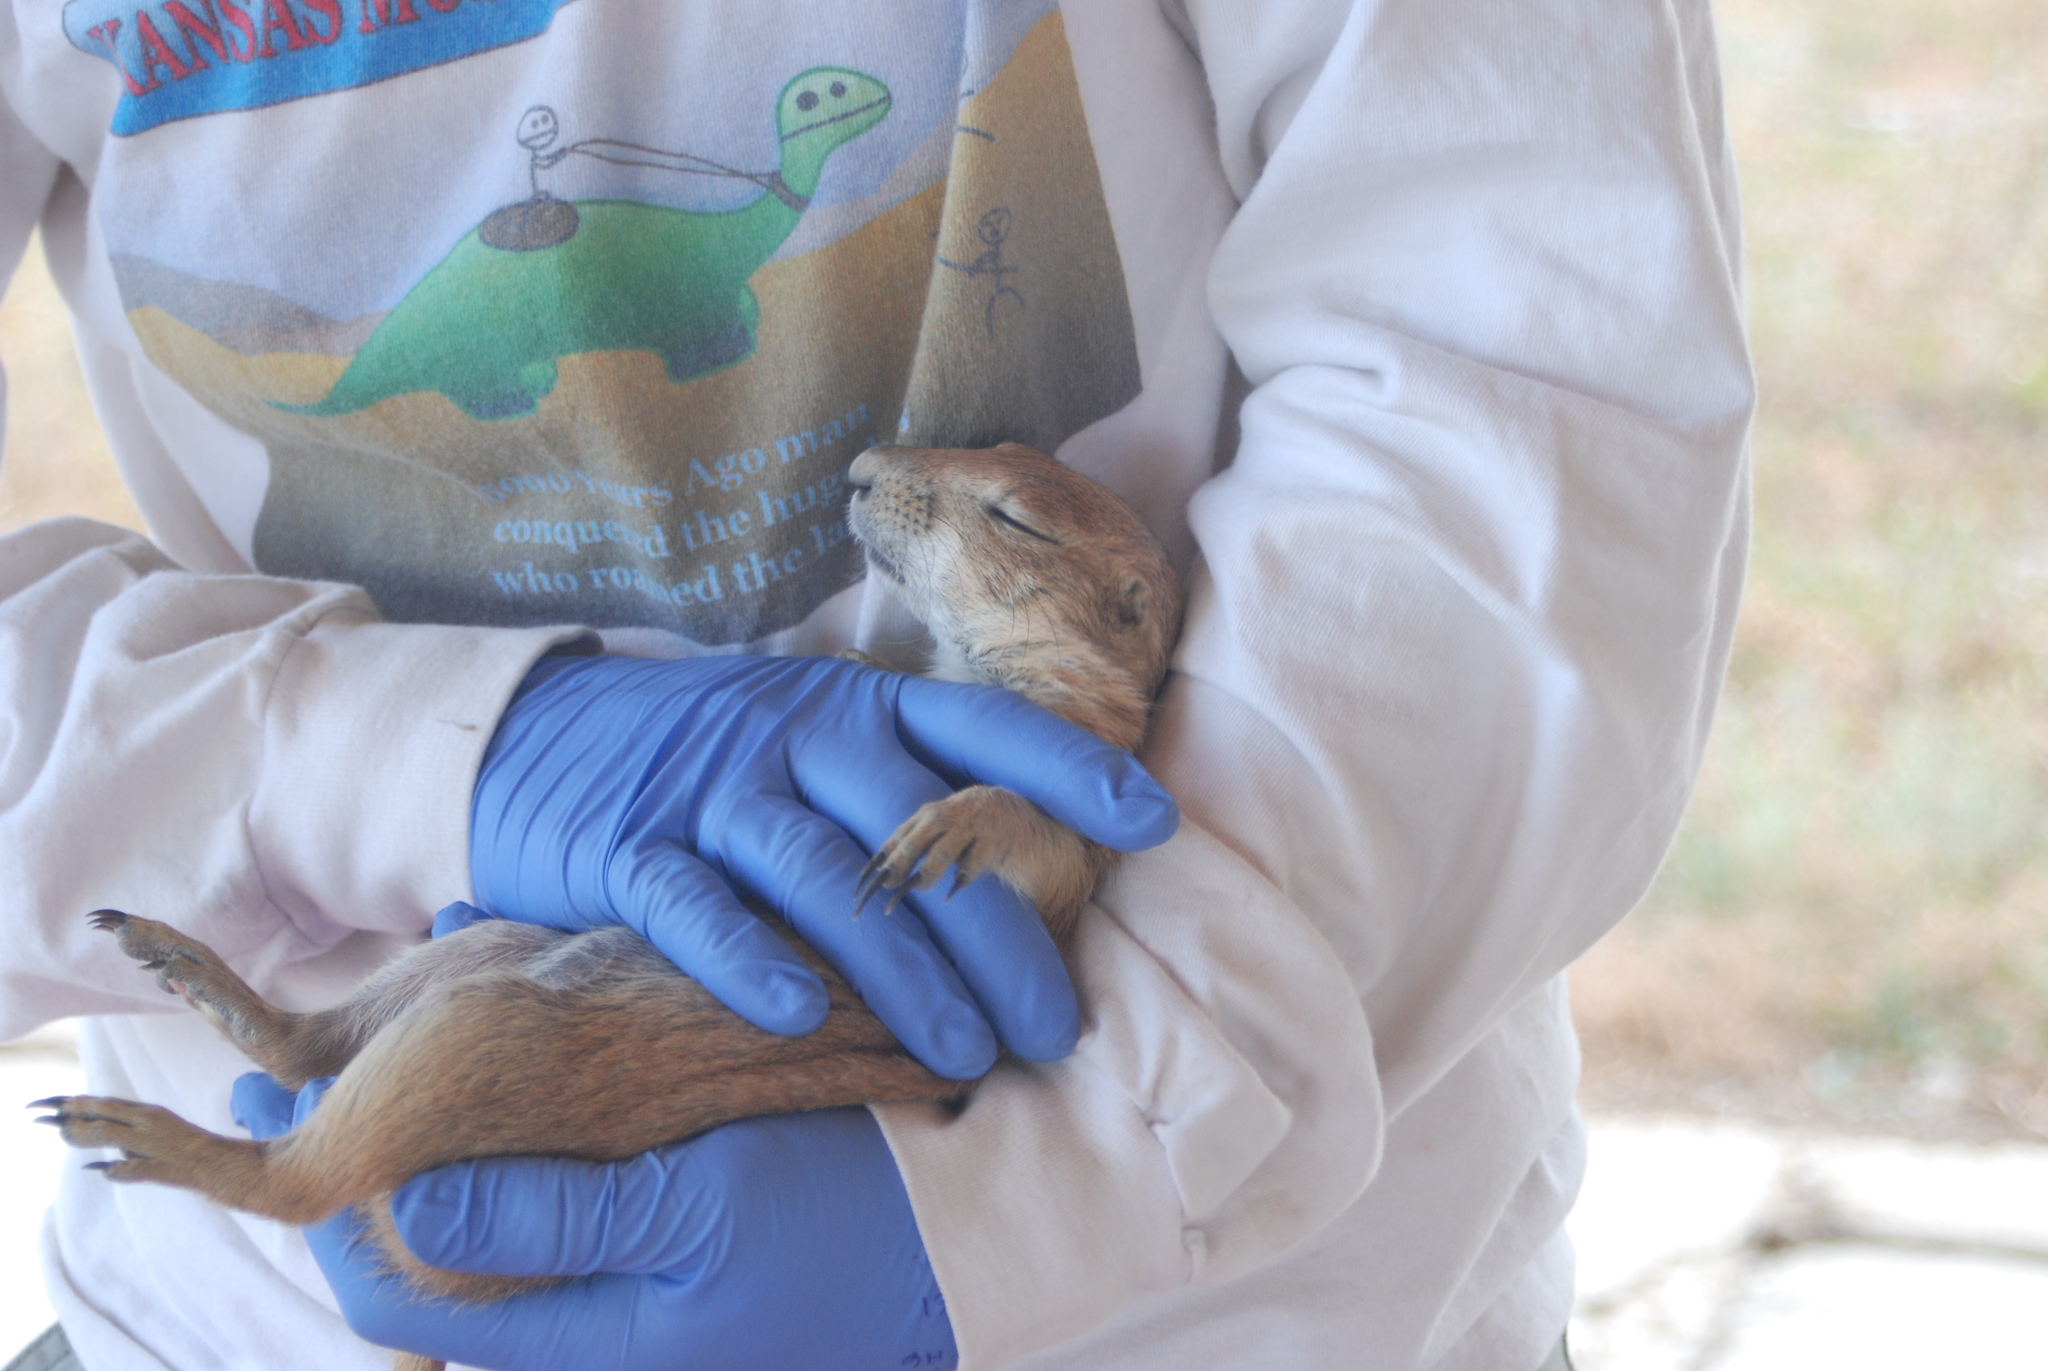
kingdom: Animalia
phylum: Chordata
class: Mammalia
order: Rodentia
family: Sciuridae
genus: Cynomys
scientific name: Cynomys ludovicianus
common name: Black-tailed prairie dog
